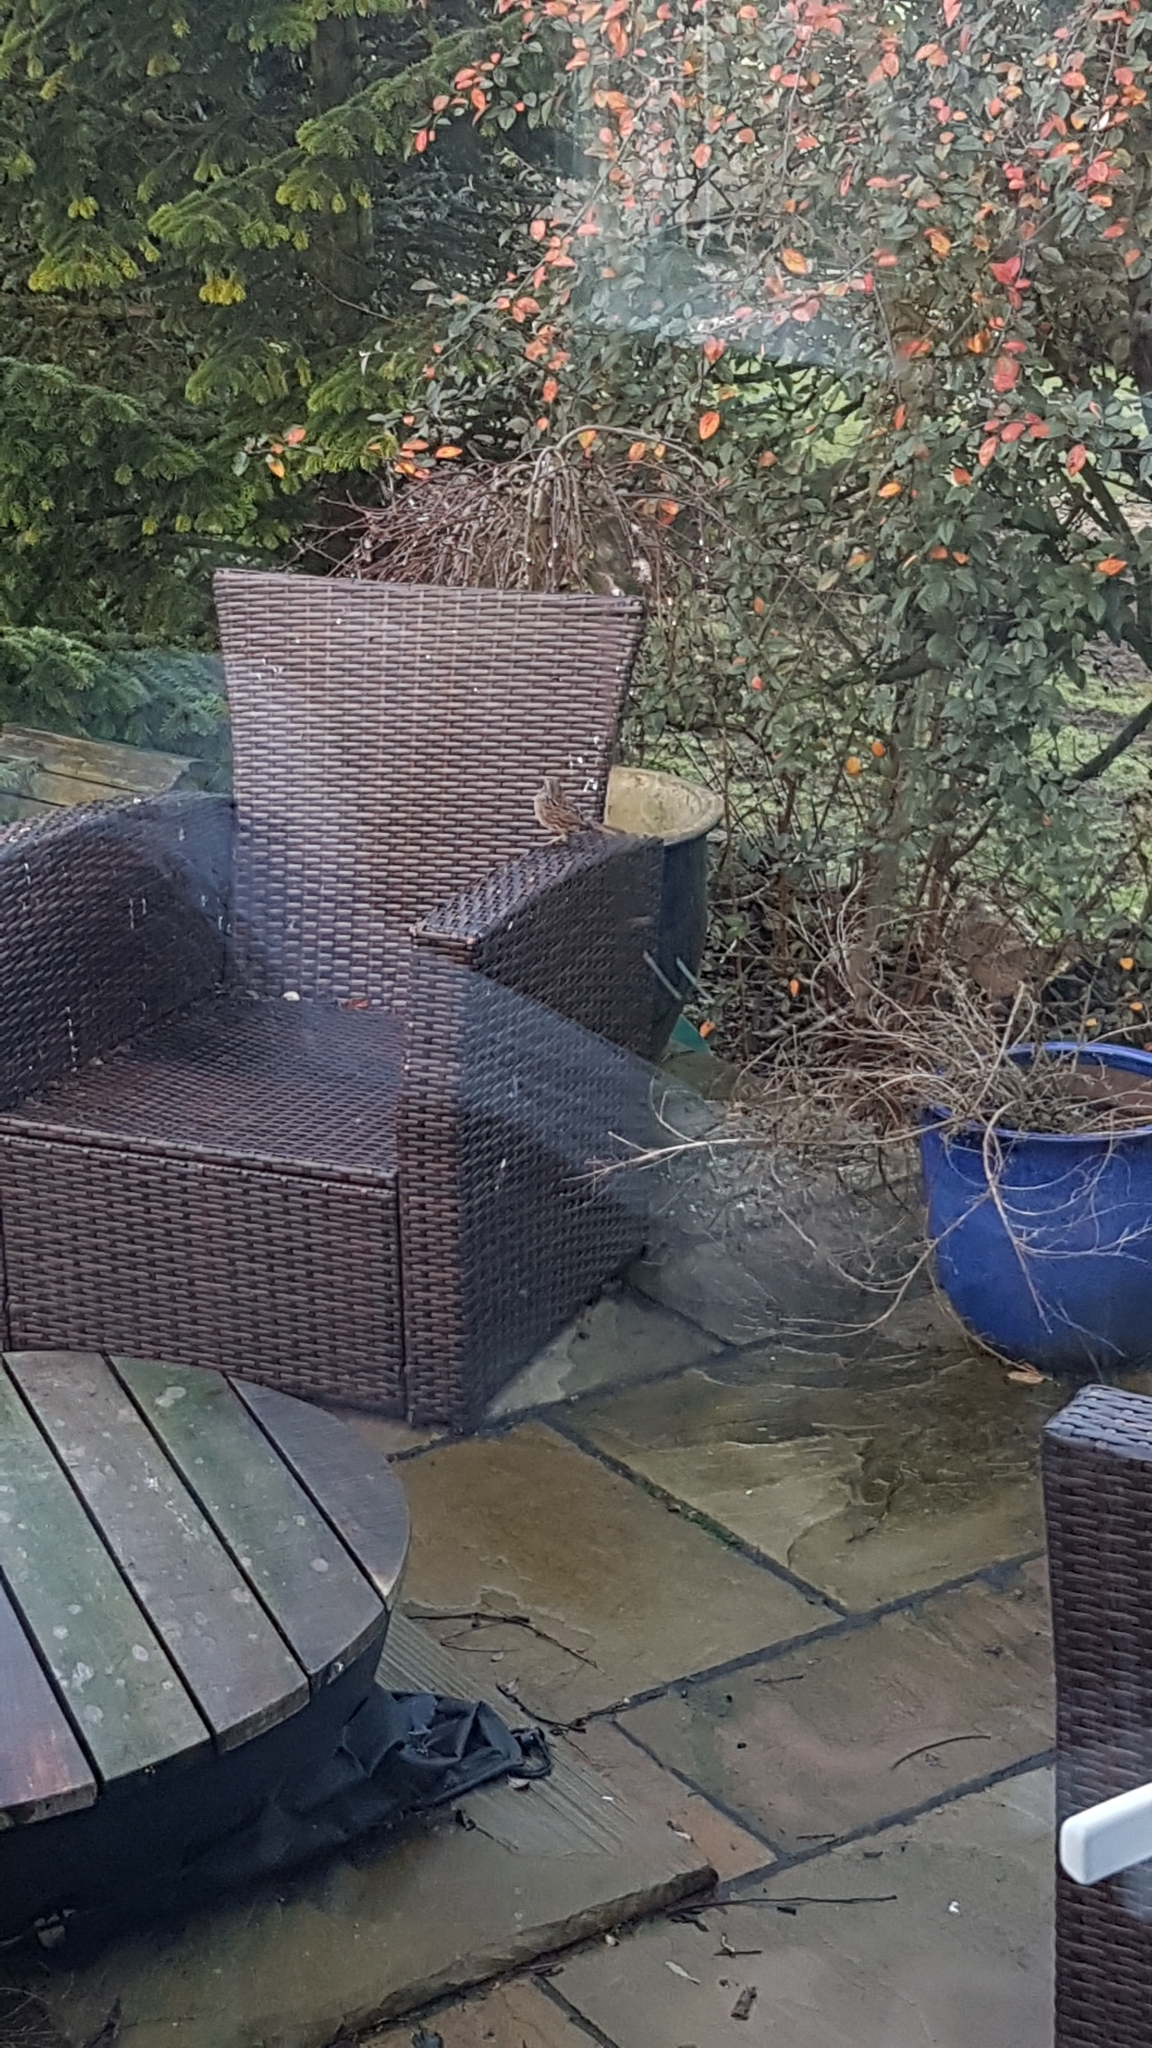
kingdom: Animalia
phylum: Chordata
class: Aves
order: Passeriformes
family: Prunellidae
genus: Prunella
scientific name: Prunella modularis
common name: Dunnock
